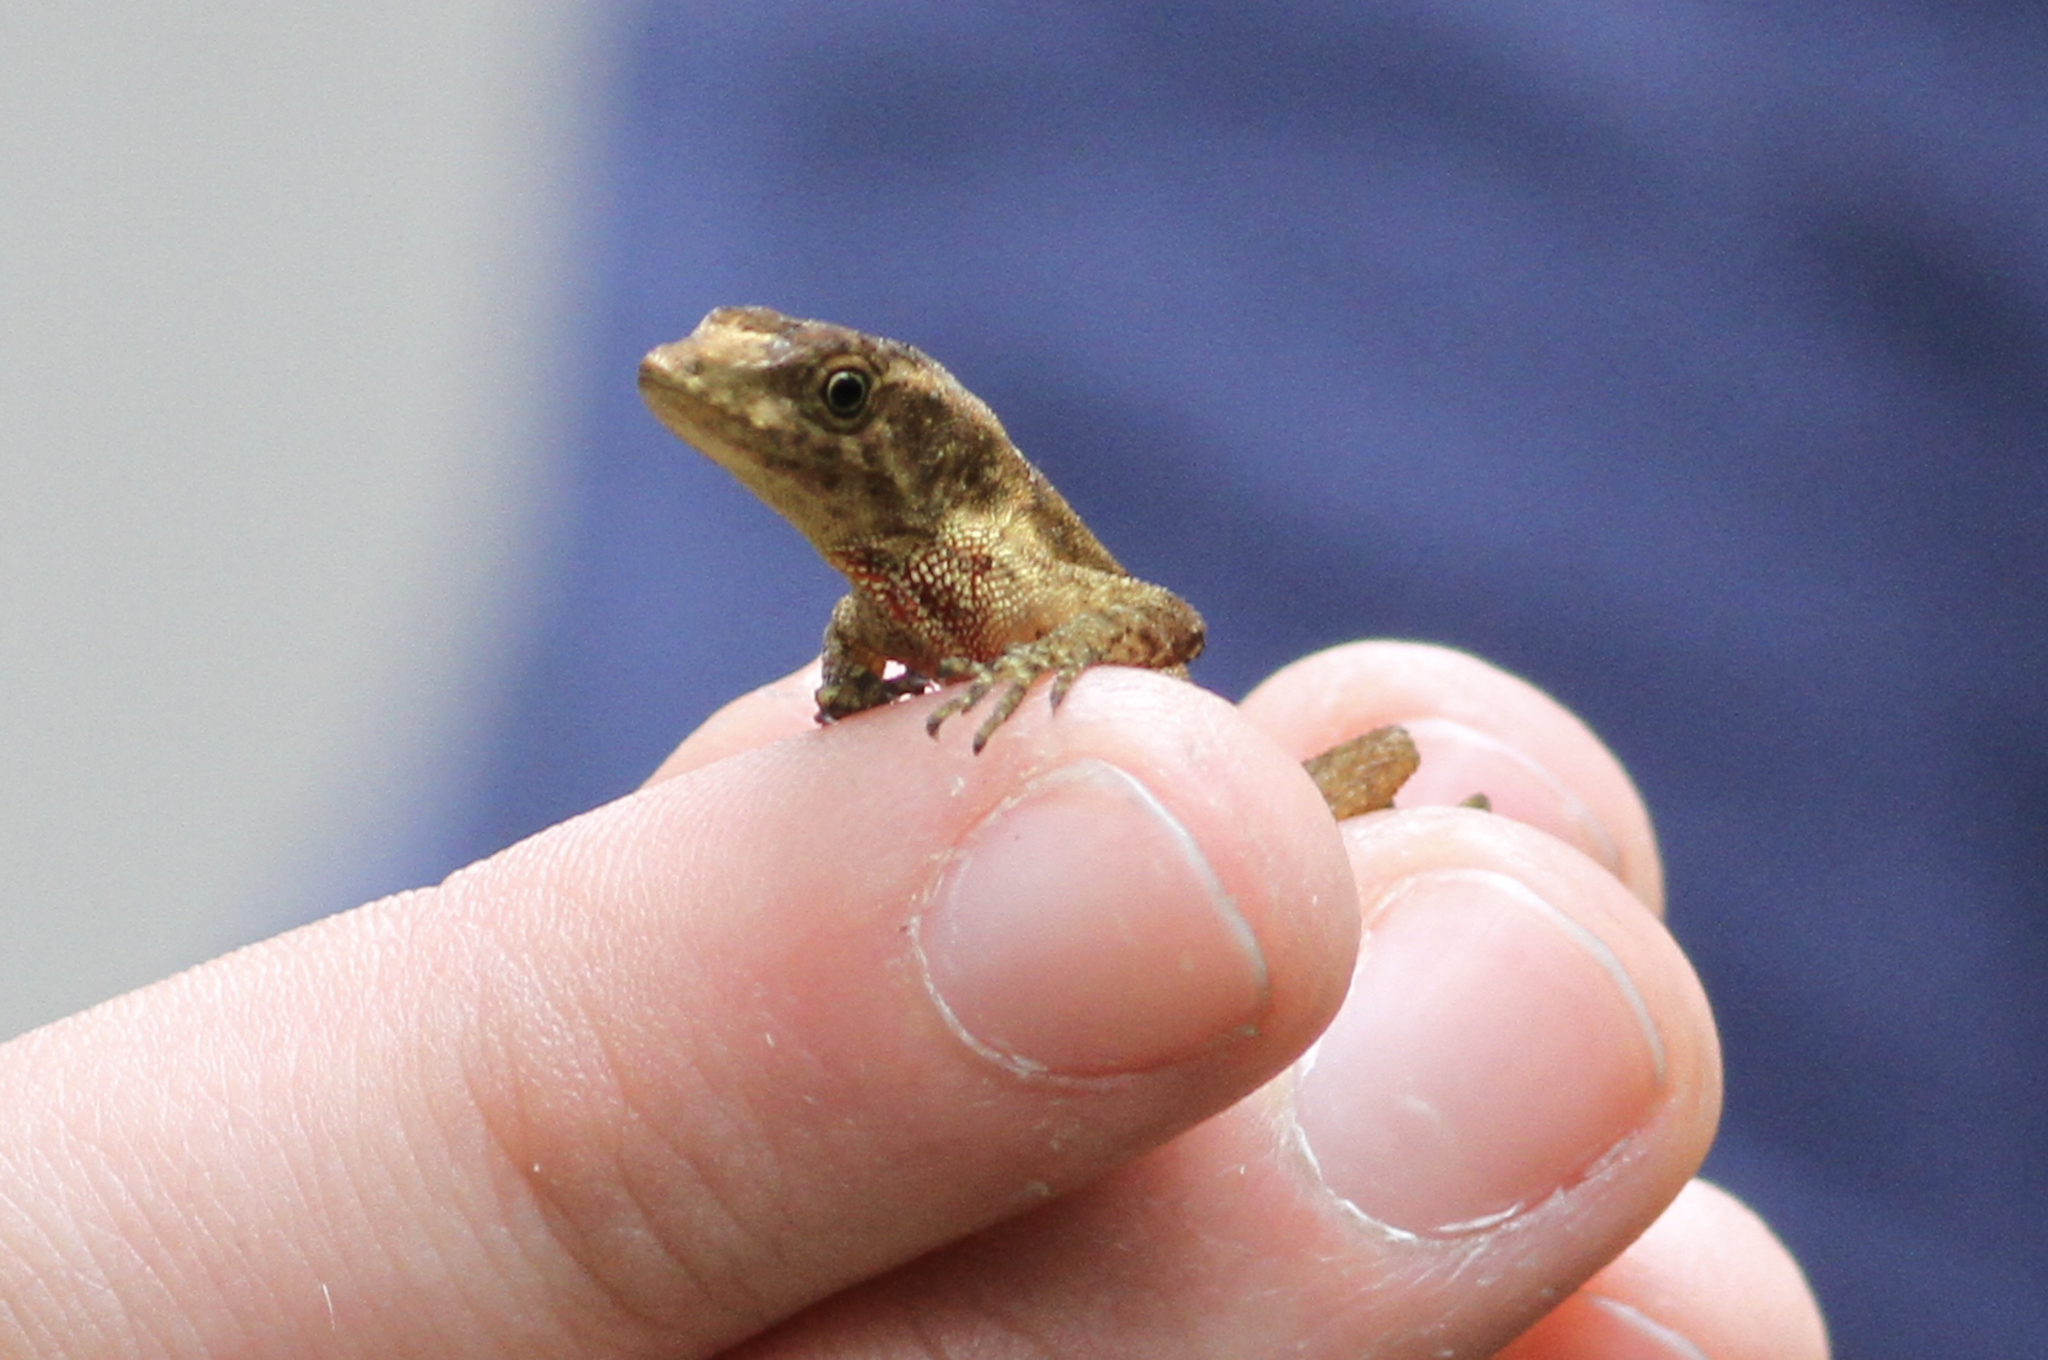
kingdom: Animalia
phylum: Chordata
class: Squamata
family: Dactyloidae
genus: Anolis
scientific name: Anolis tropidolepis
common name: Swift anole
